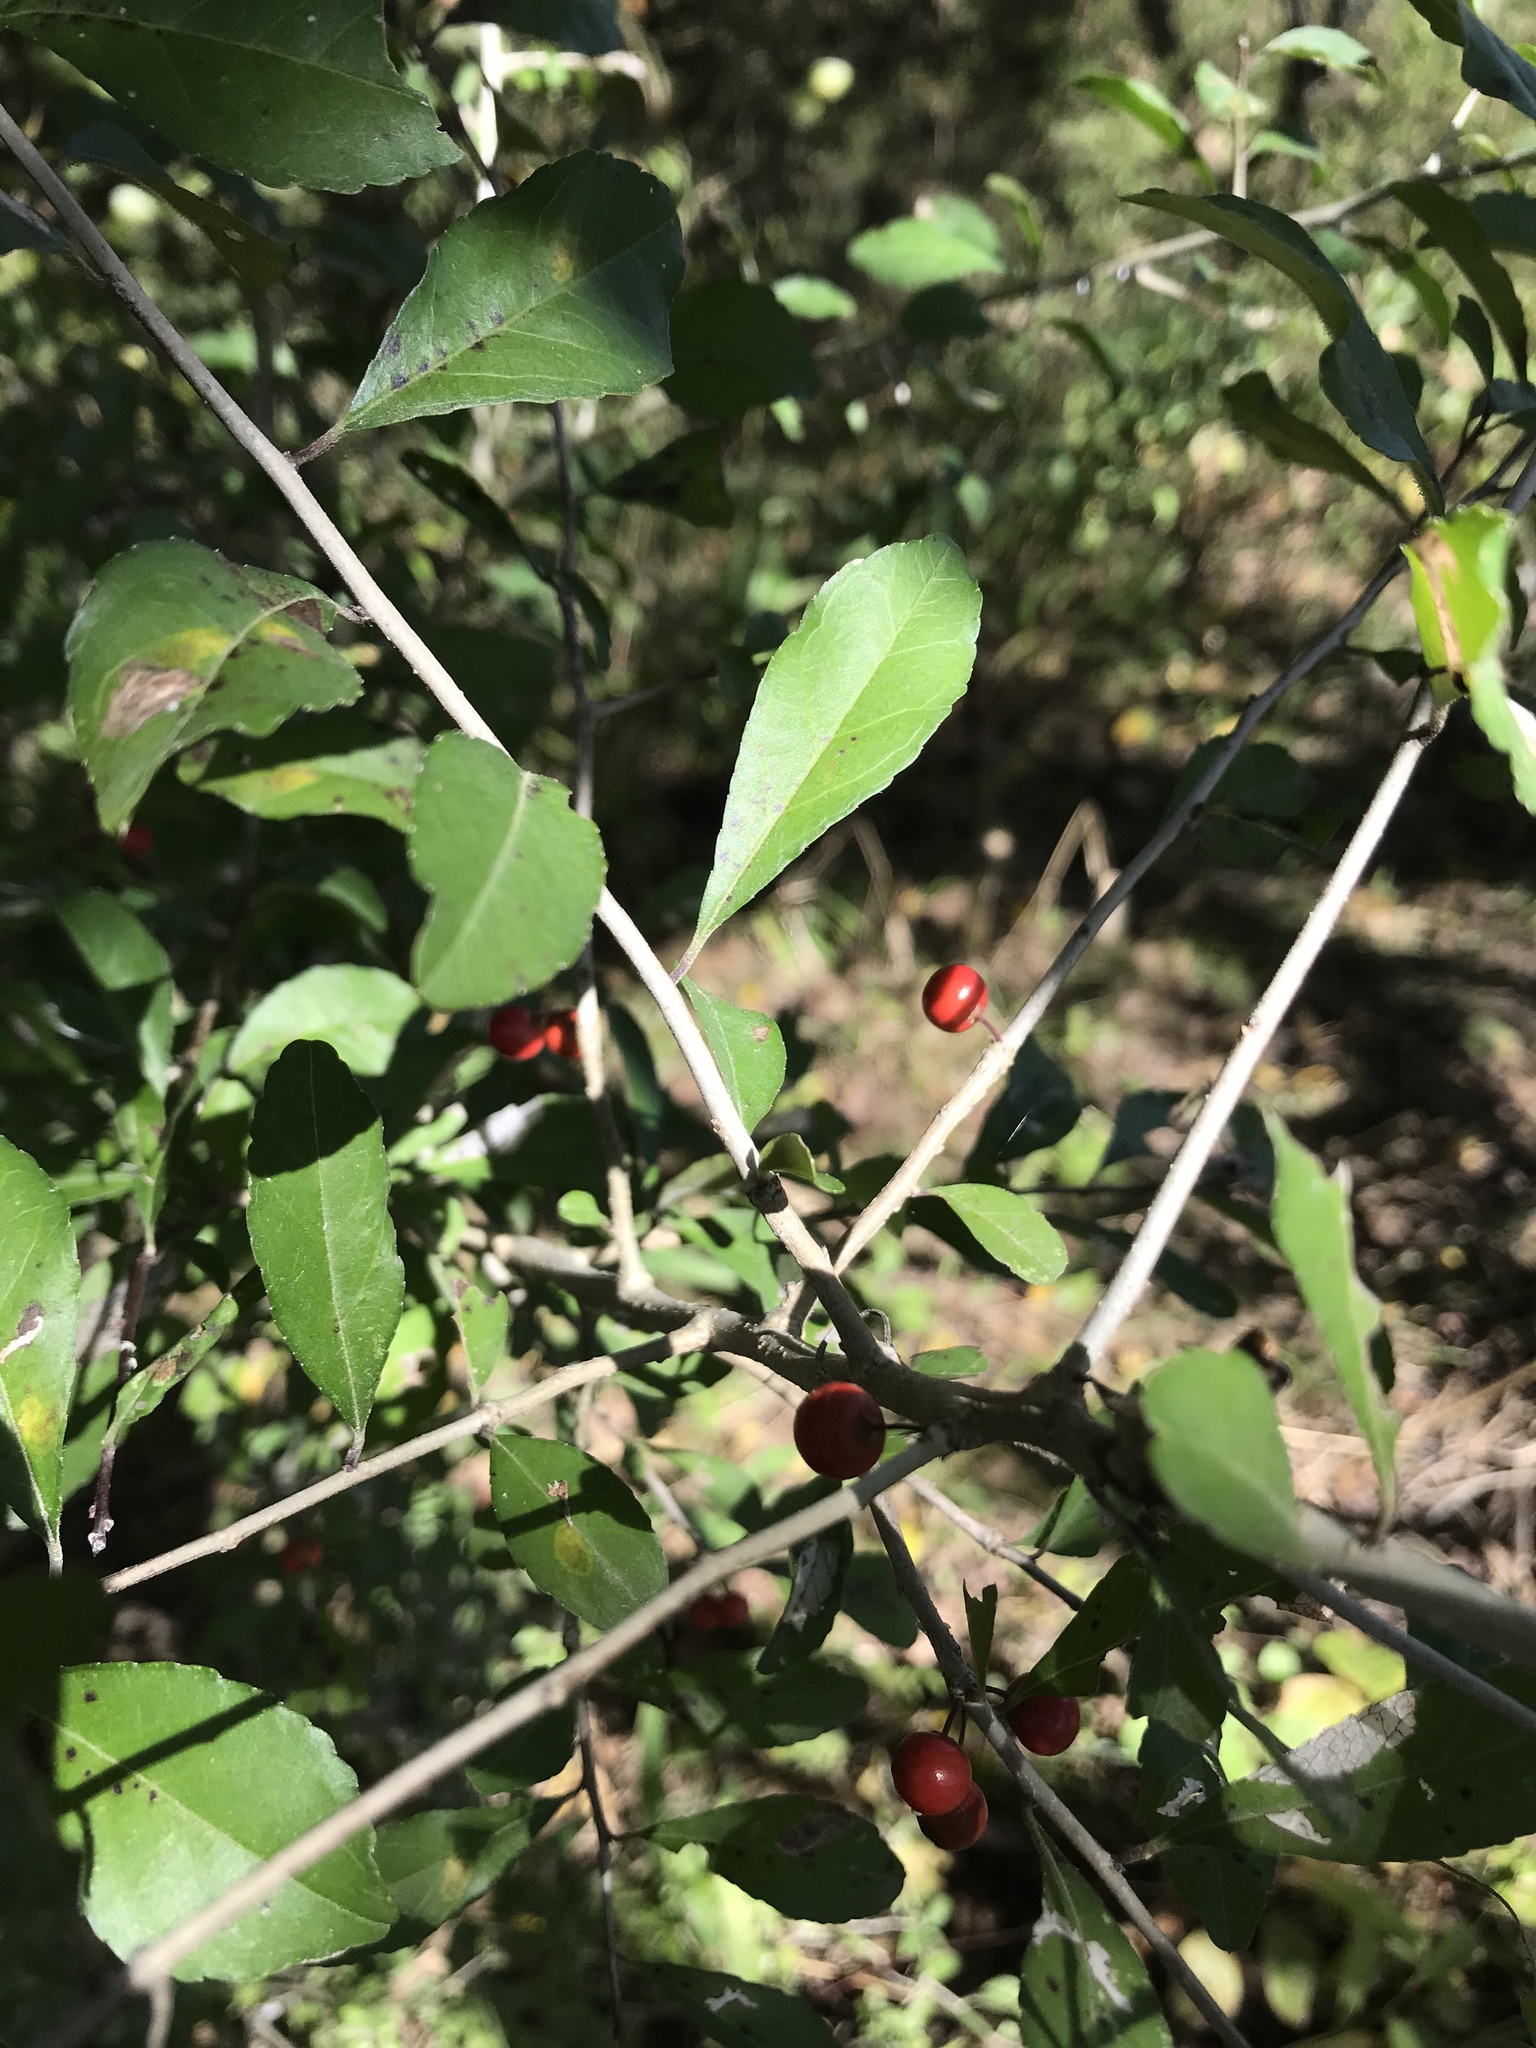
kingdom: Plantae
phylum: Tracheophyta
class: Magnoliopsida
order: Aquifoliales
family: Aquifoliaceae
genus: Ilex
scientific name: Ilex decidua
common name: Possum-haw
